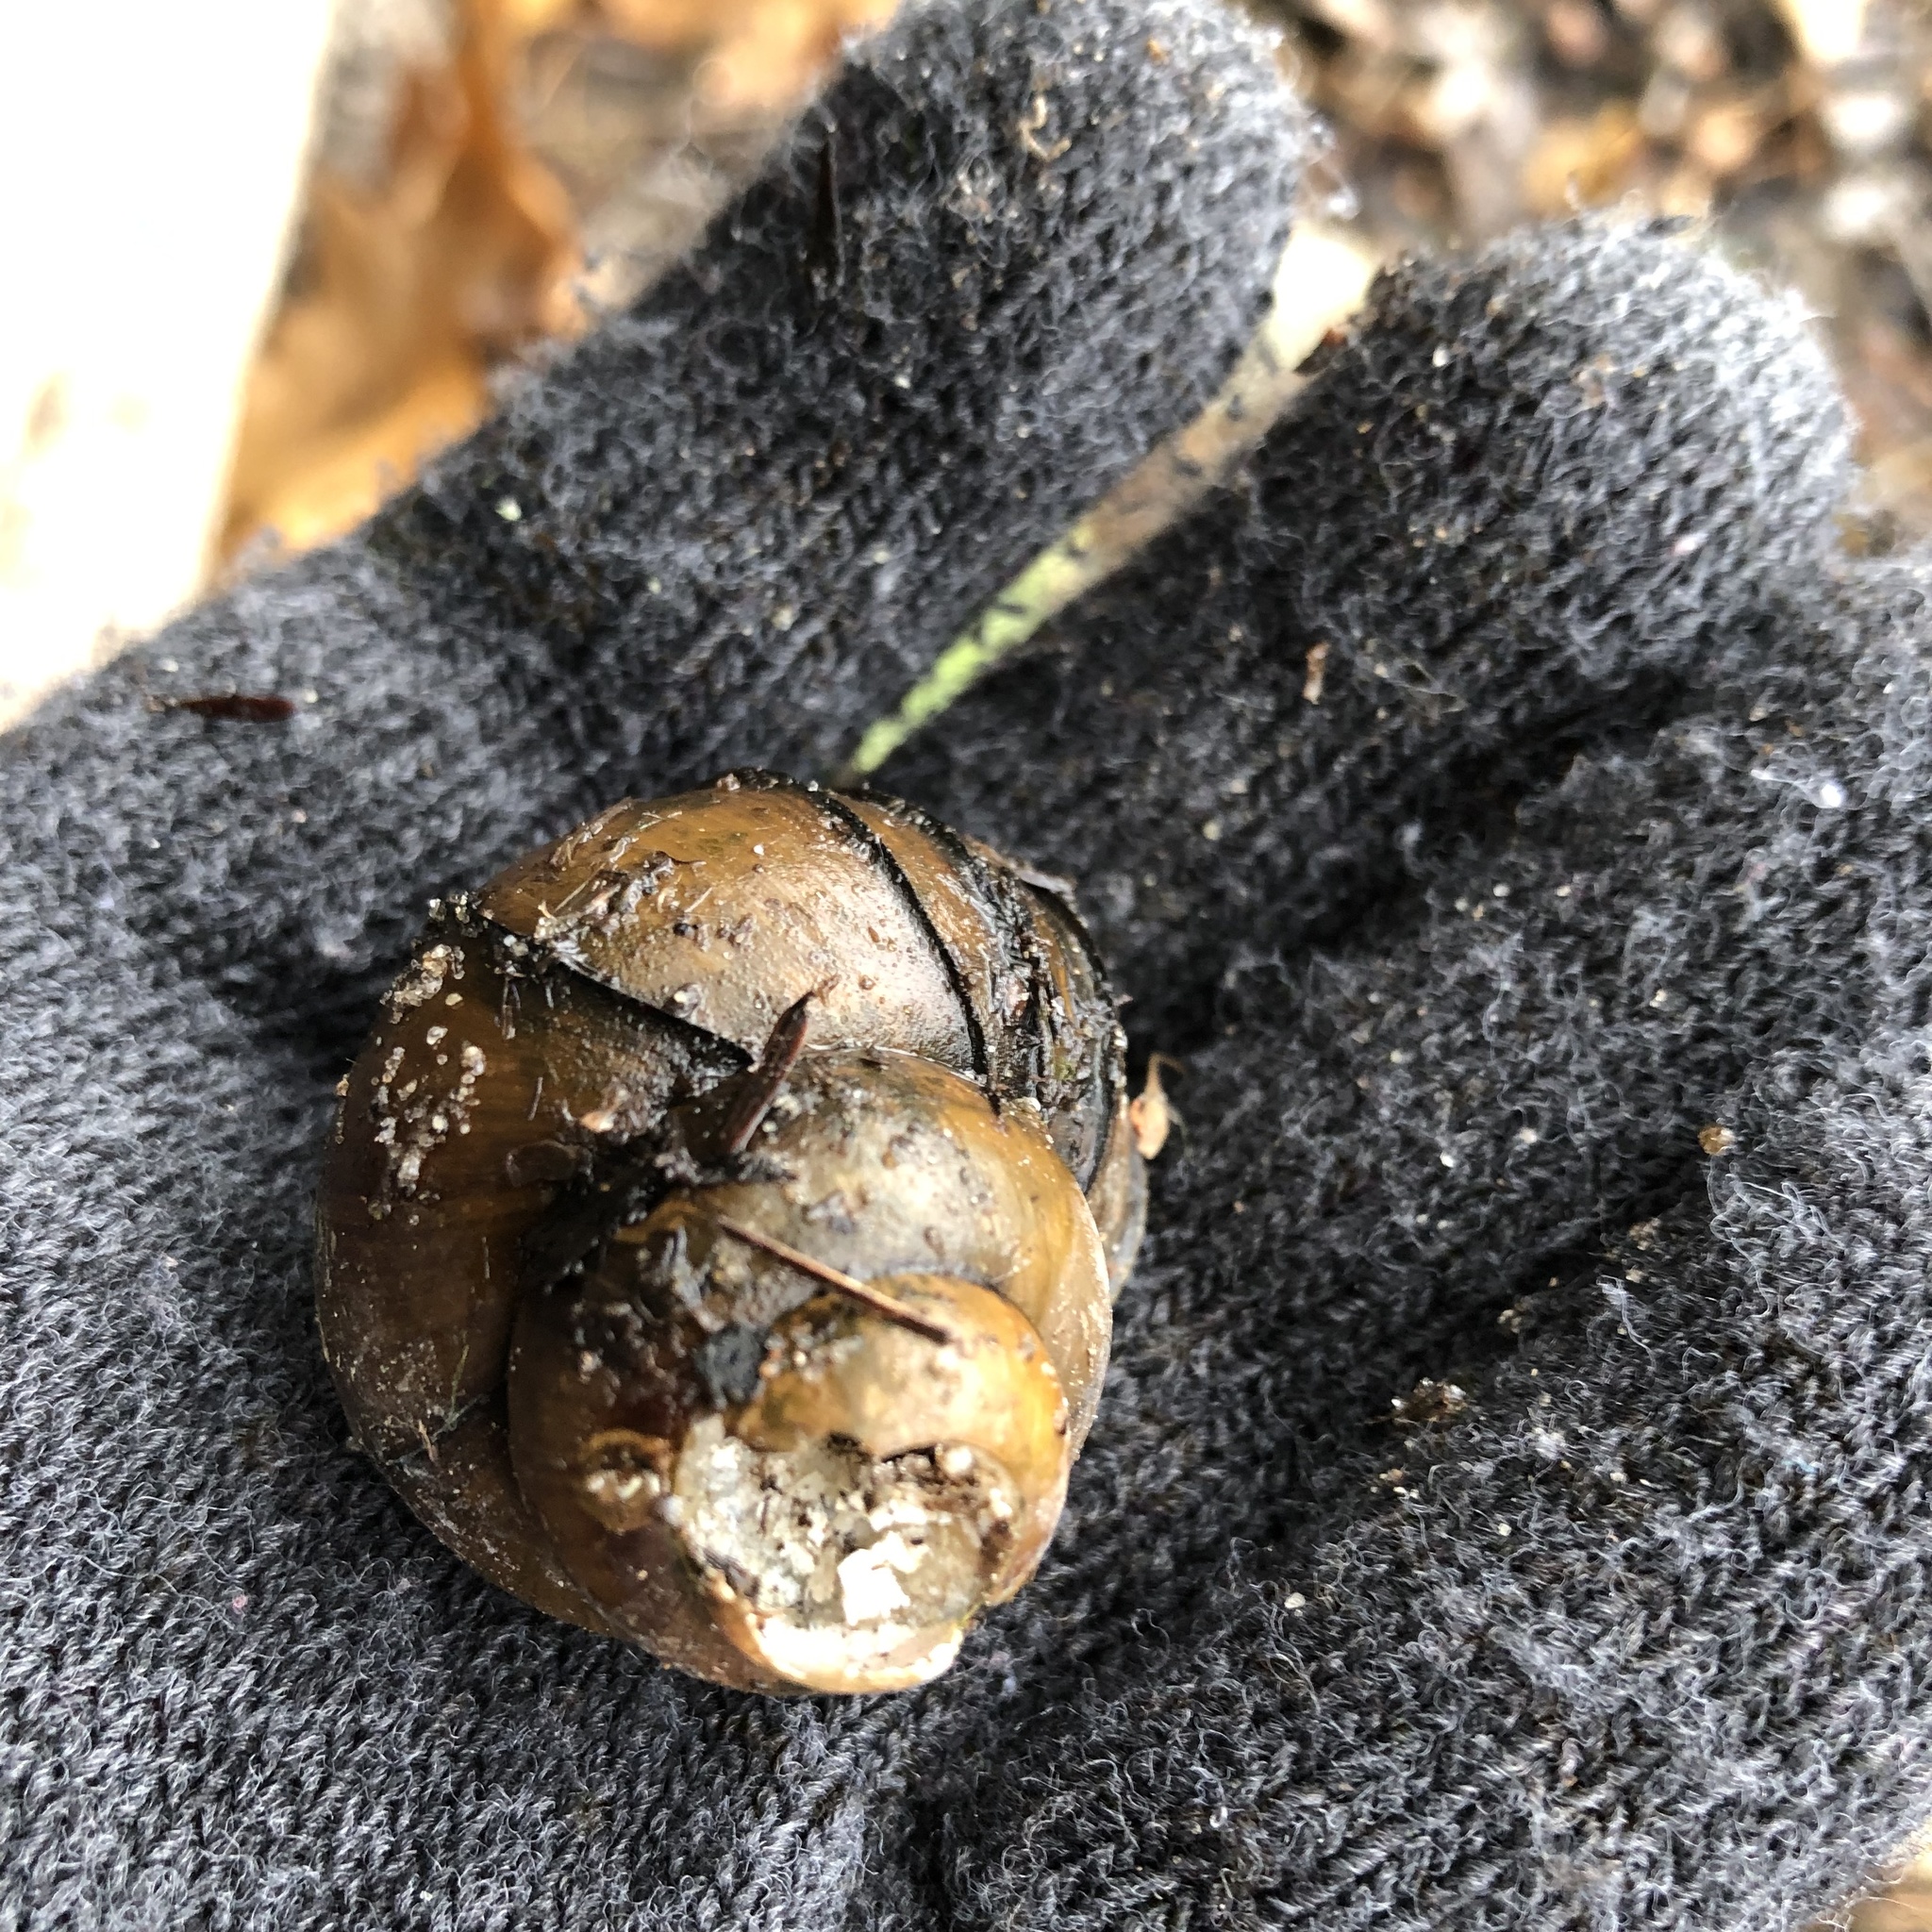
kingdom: Animalia
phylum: Mollusca
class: Gastropoda
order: Architaenioglossa
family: Viviparidae
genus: Cipangopaludina
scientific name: Cipangopaludina chinensis
